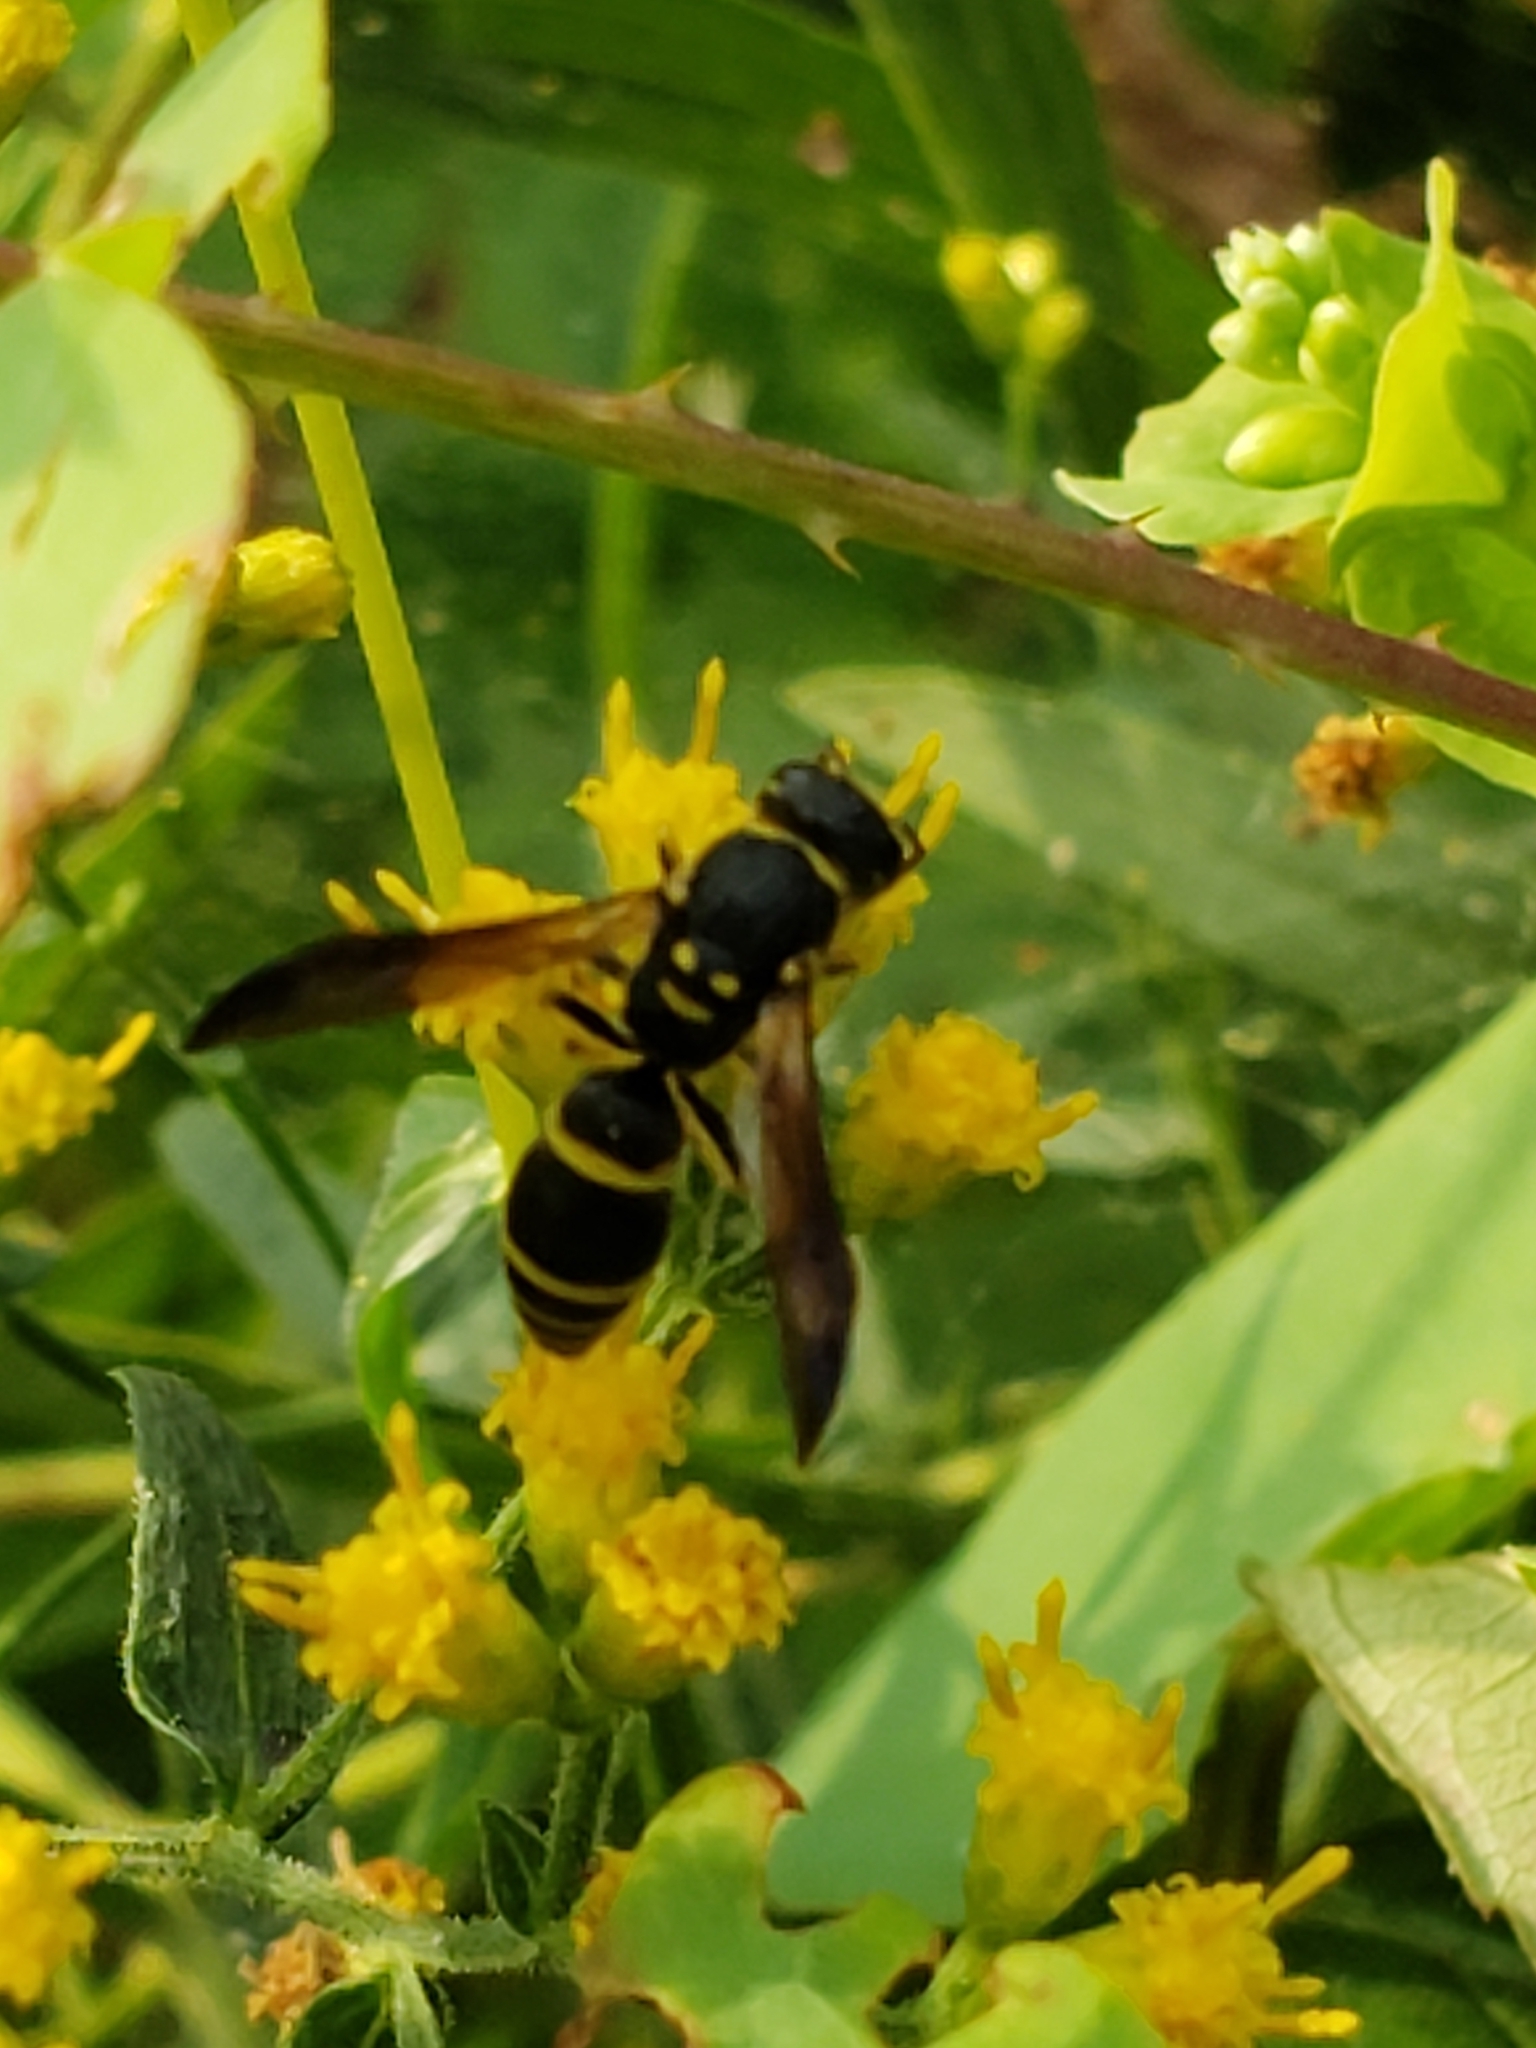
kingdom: Animalia
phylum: Arthropoda
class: Insecta
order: Hymenoptera
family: Vespidae
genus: Ancistrocerus
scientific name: Ancistrocerus adiabatus
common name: Bramble mason wasp
